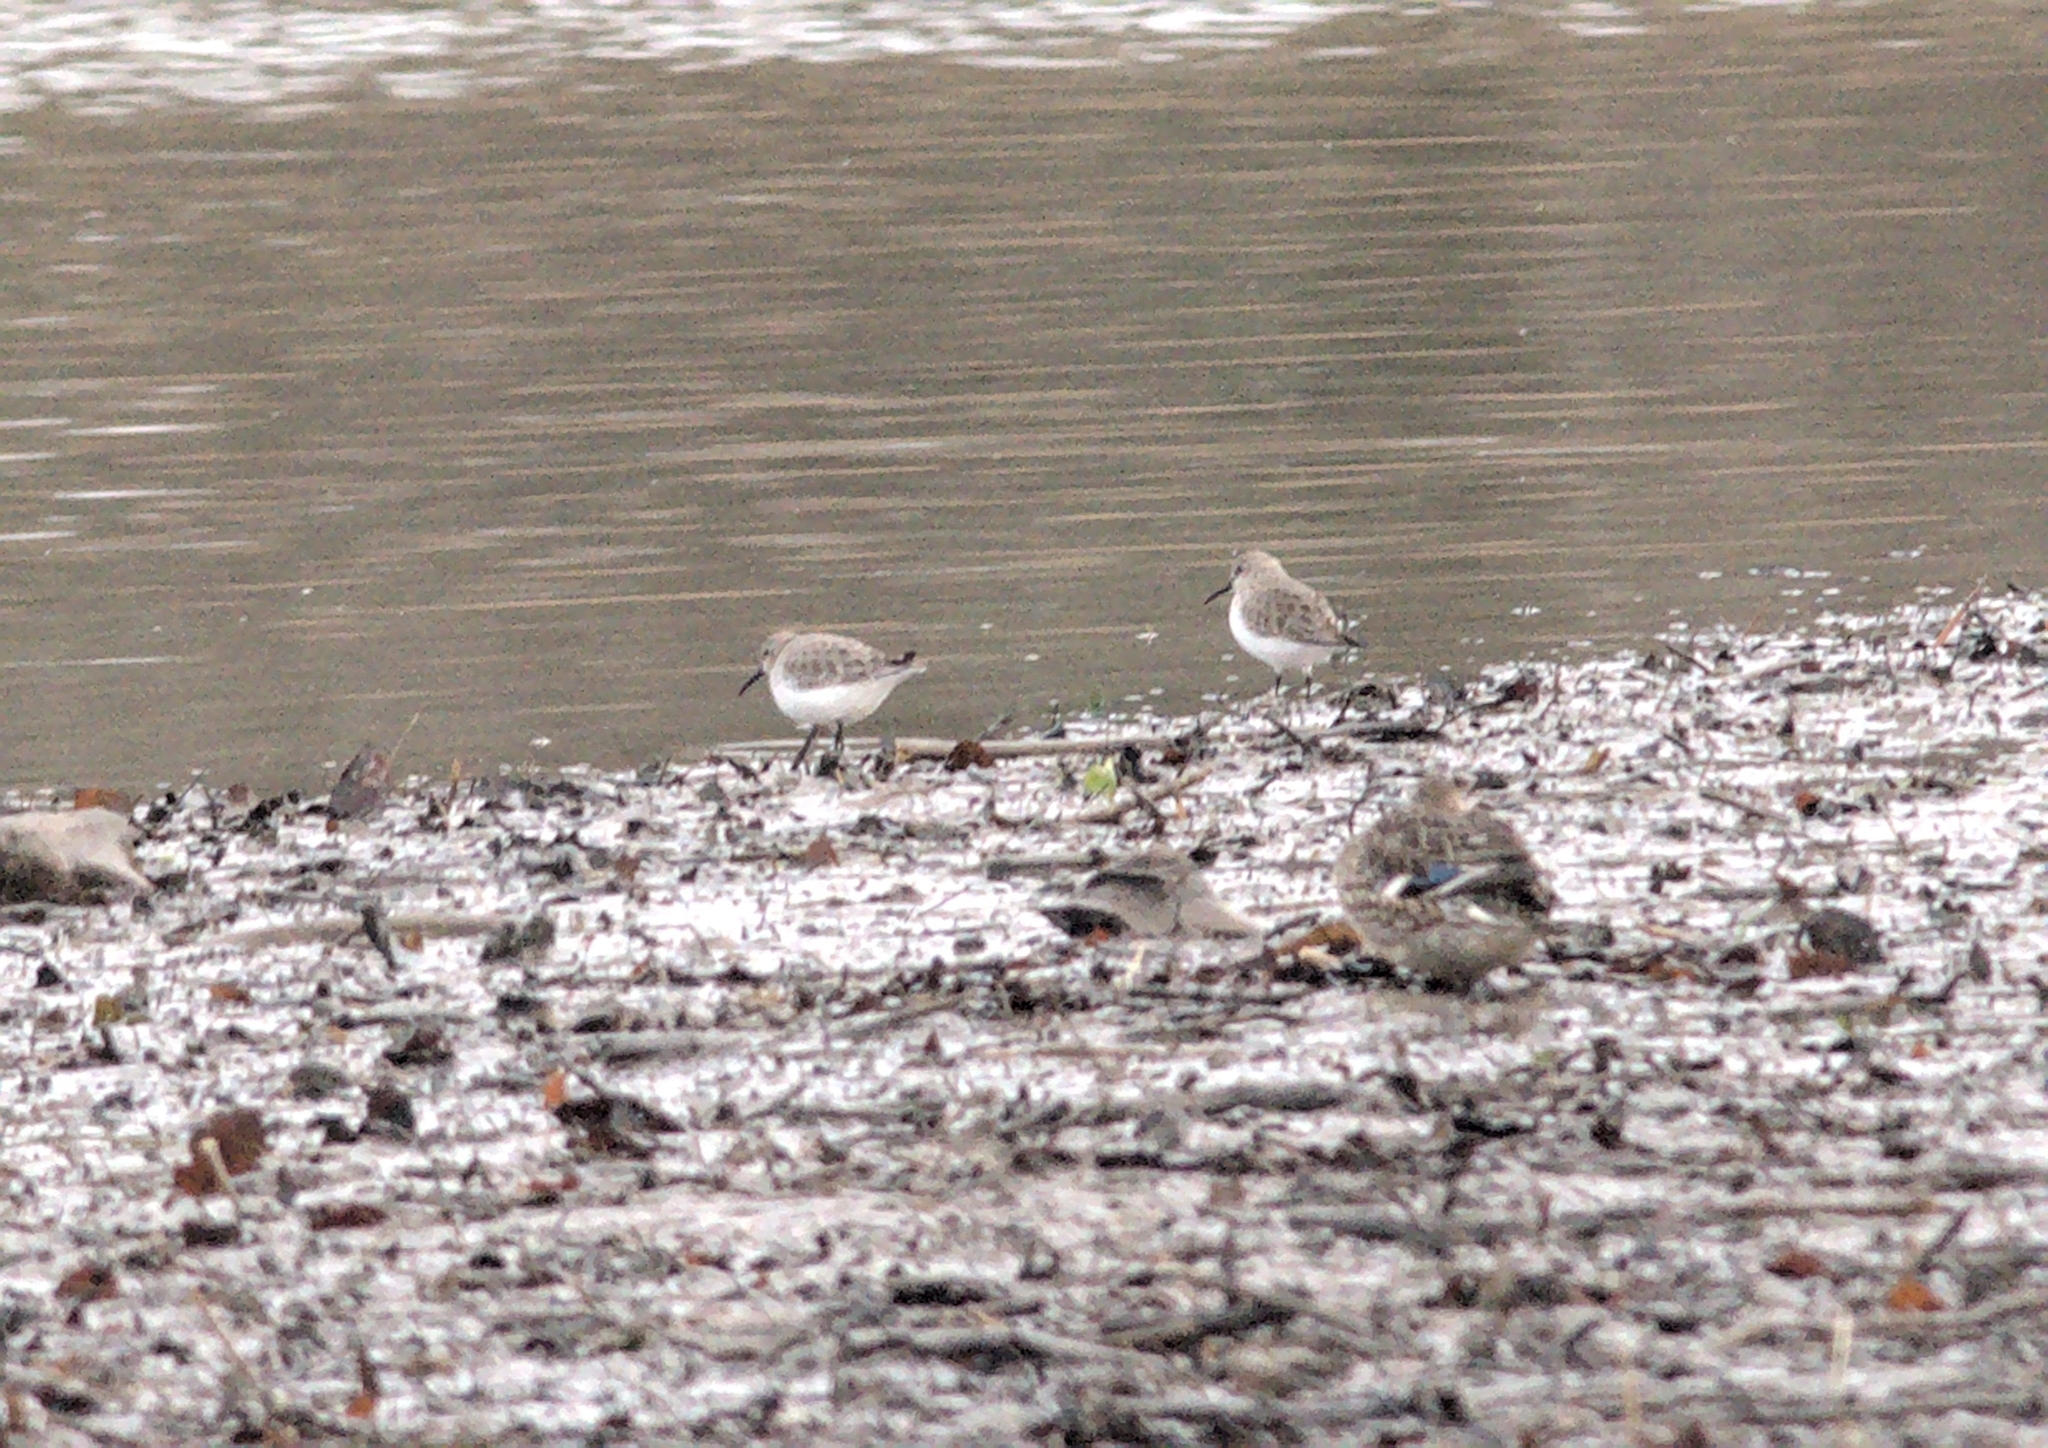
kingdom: Animalia
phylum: Chordata
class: Aves
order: Charadriiformes
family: Scolopacidae
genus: Calidris
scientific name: Calidris alpina
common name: Dunlin
